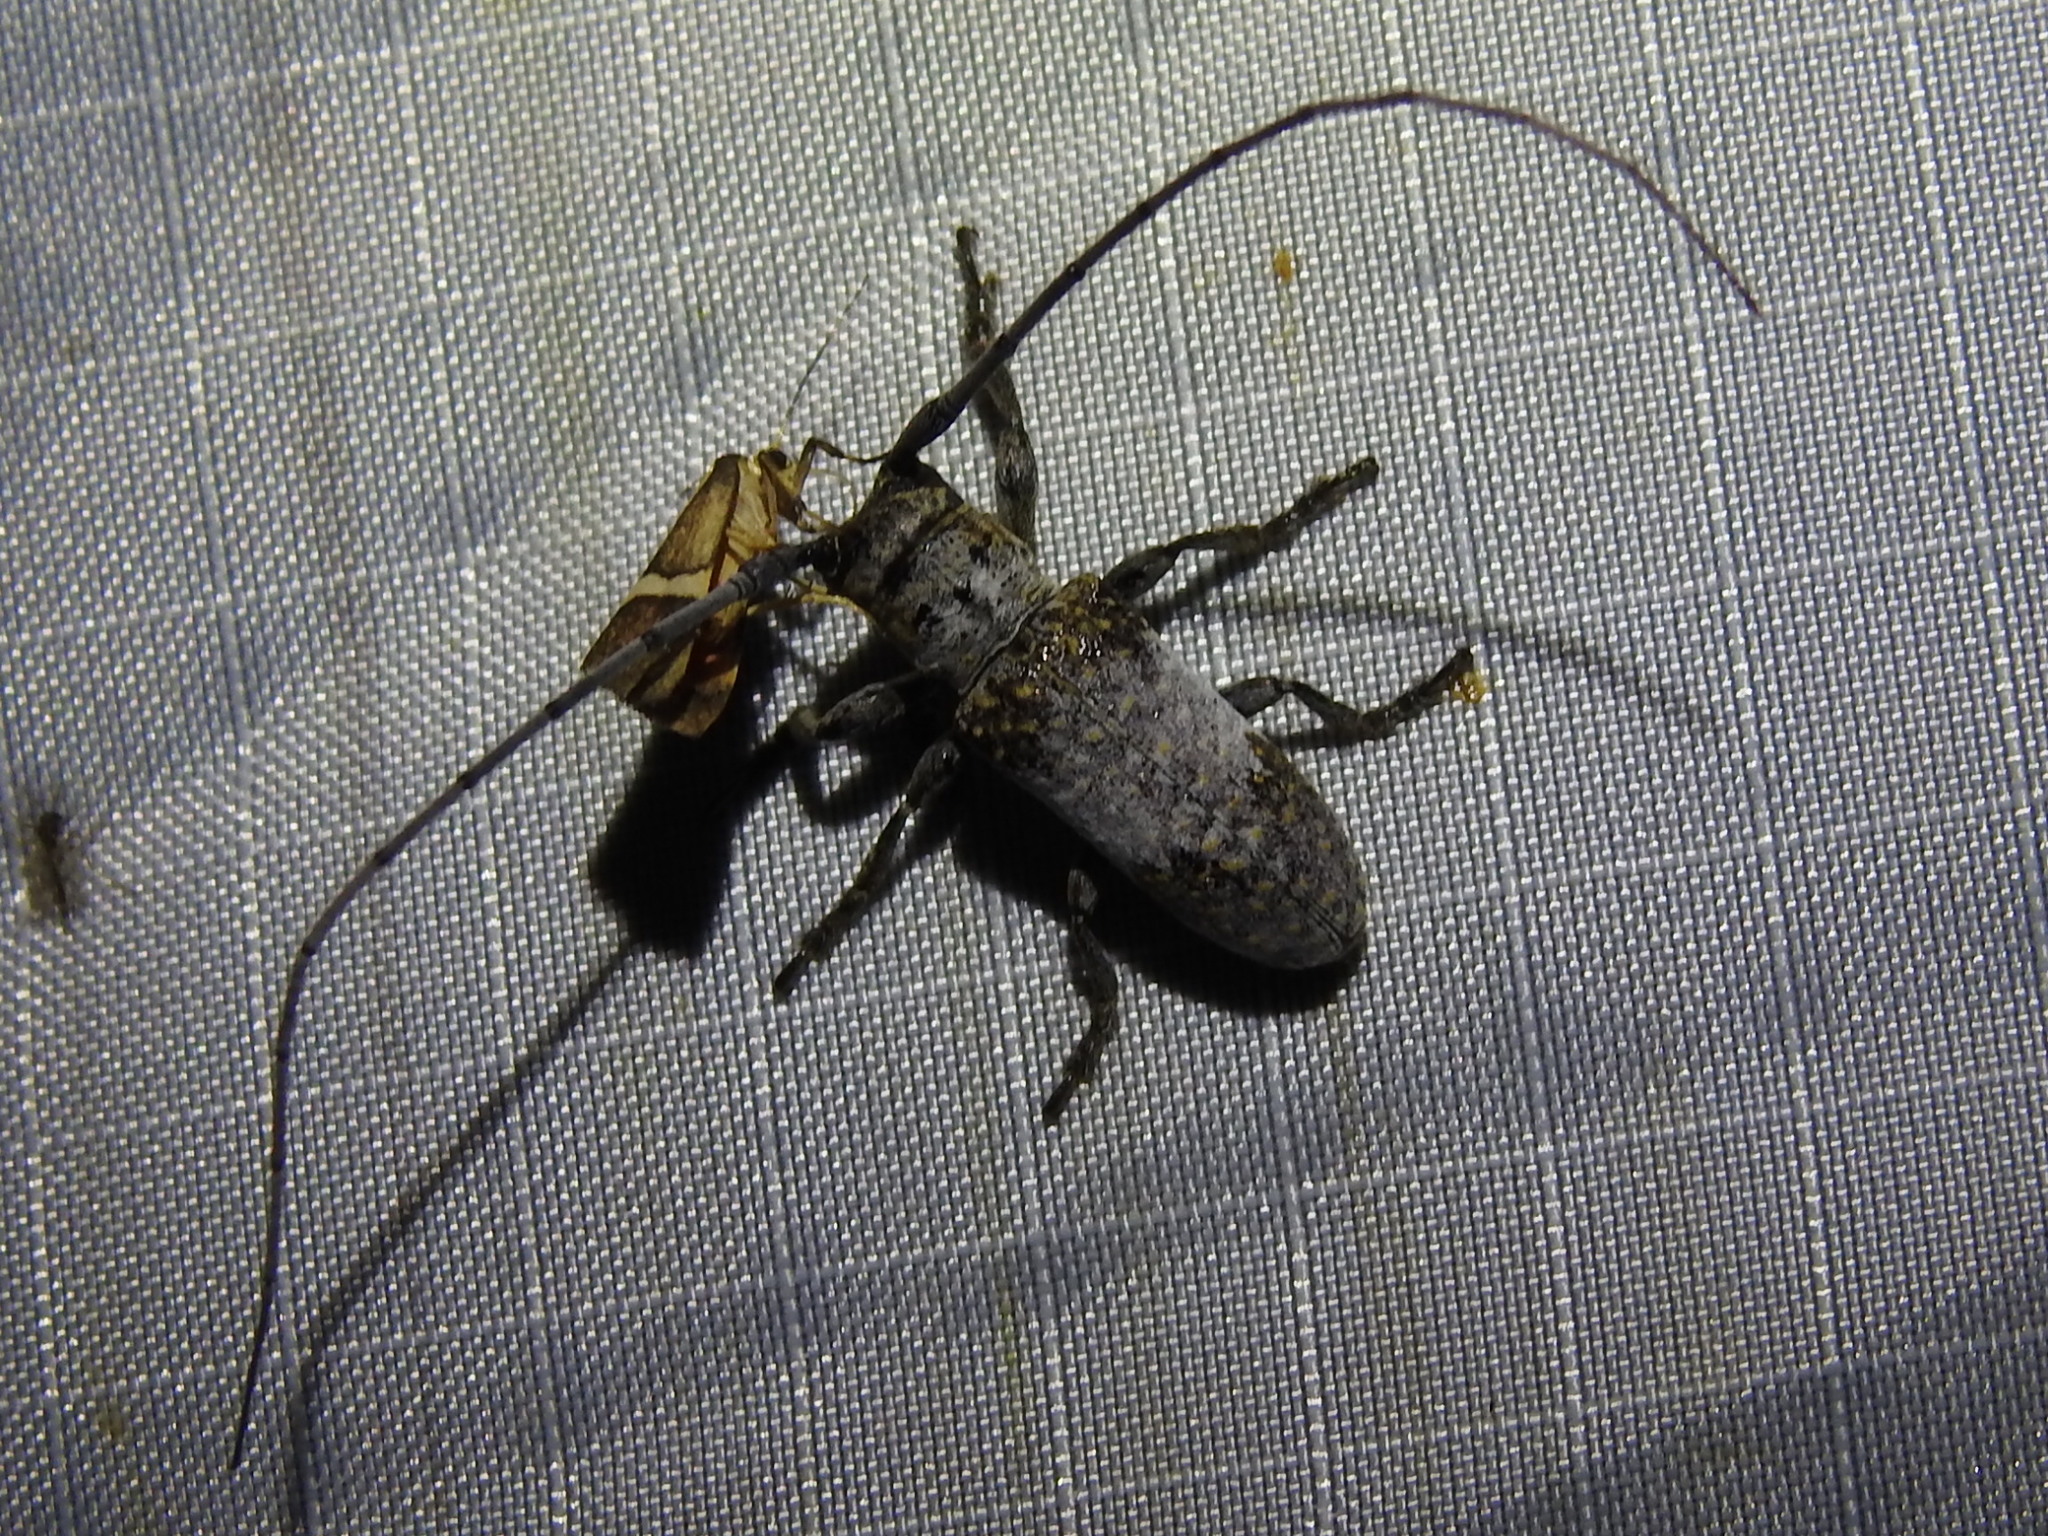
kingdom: Animalia
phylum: Arthropoda
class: Insecta
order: Coleoptera
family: Cerambycidae
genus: Oncideres
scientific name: Oncideres rhodosticta
